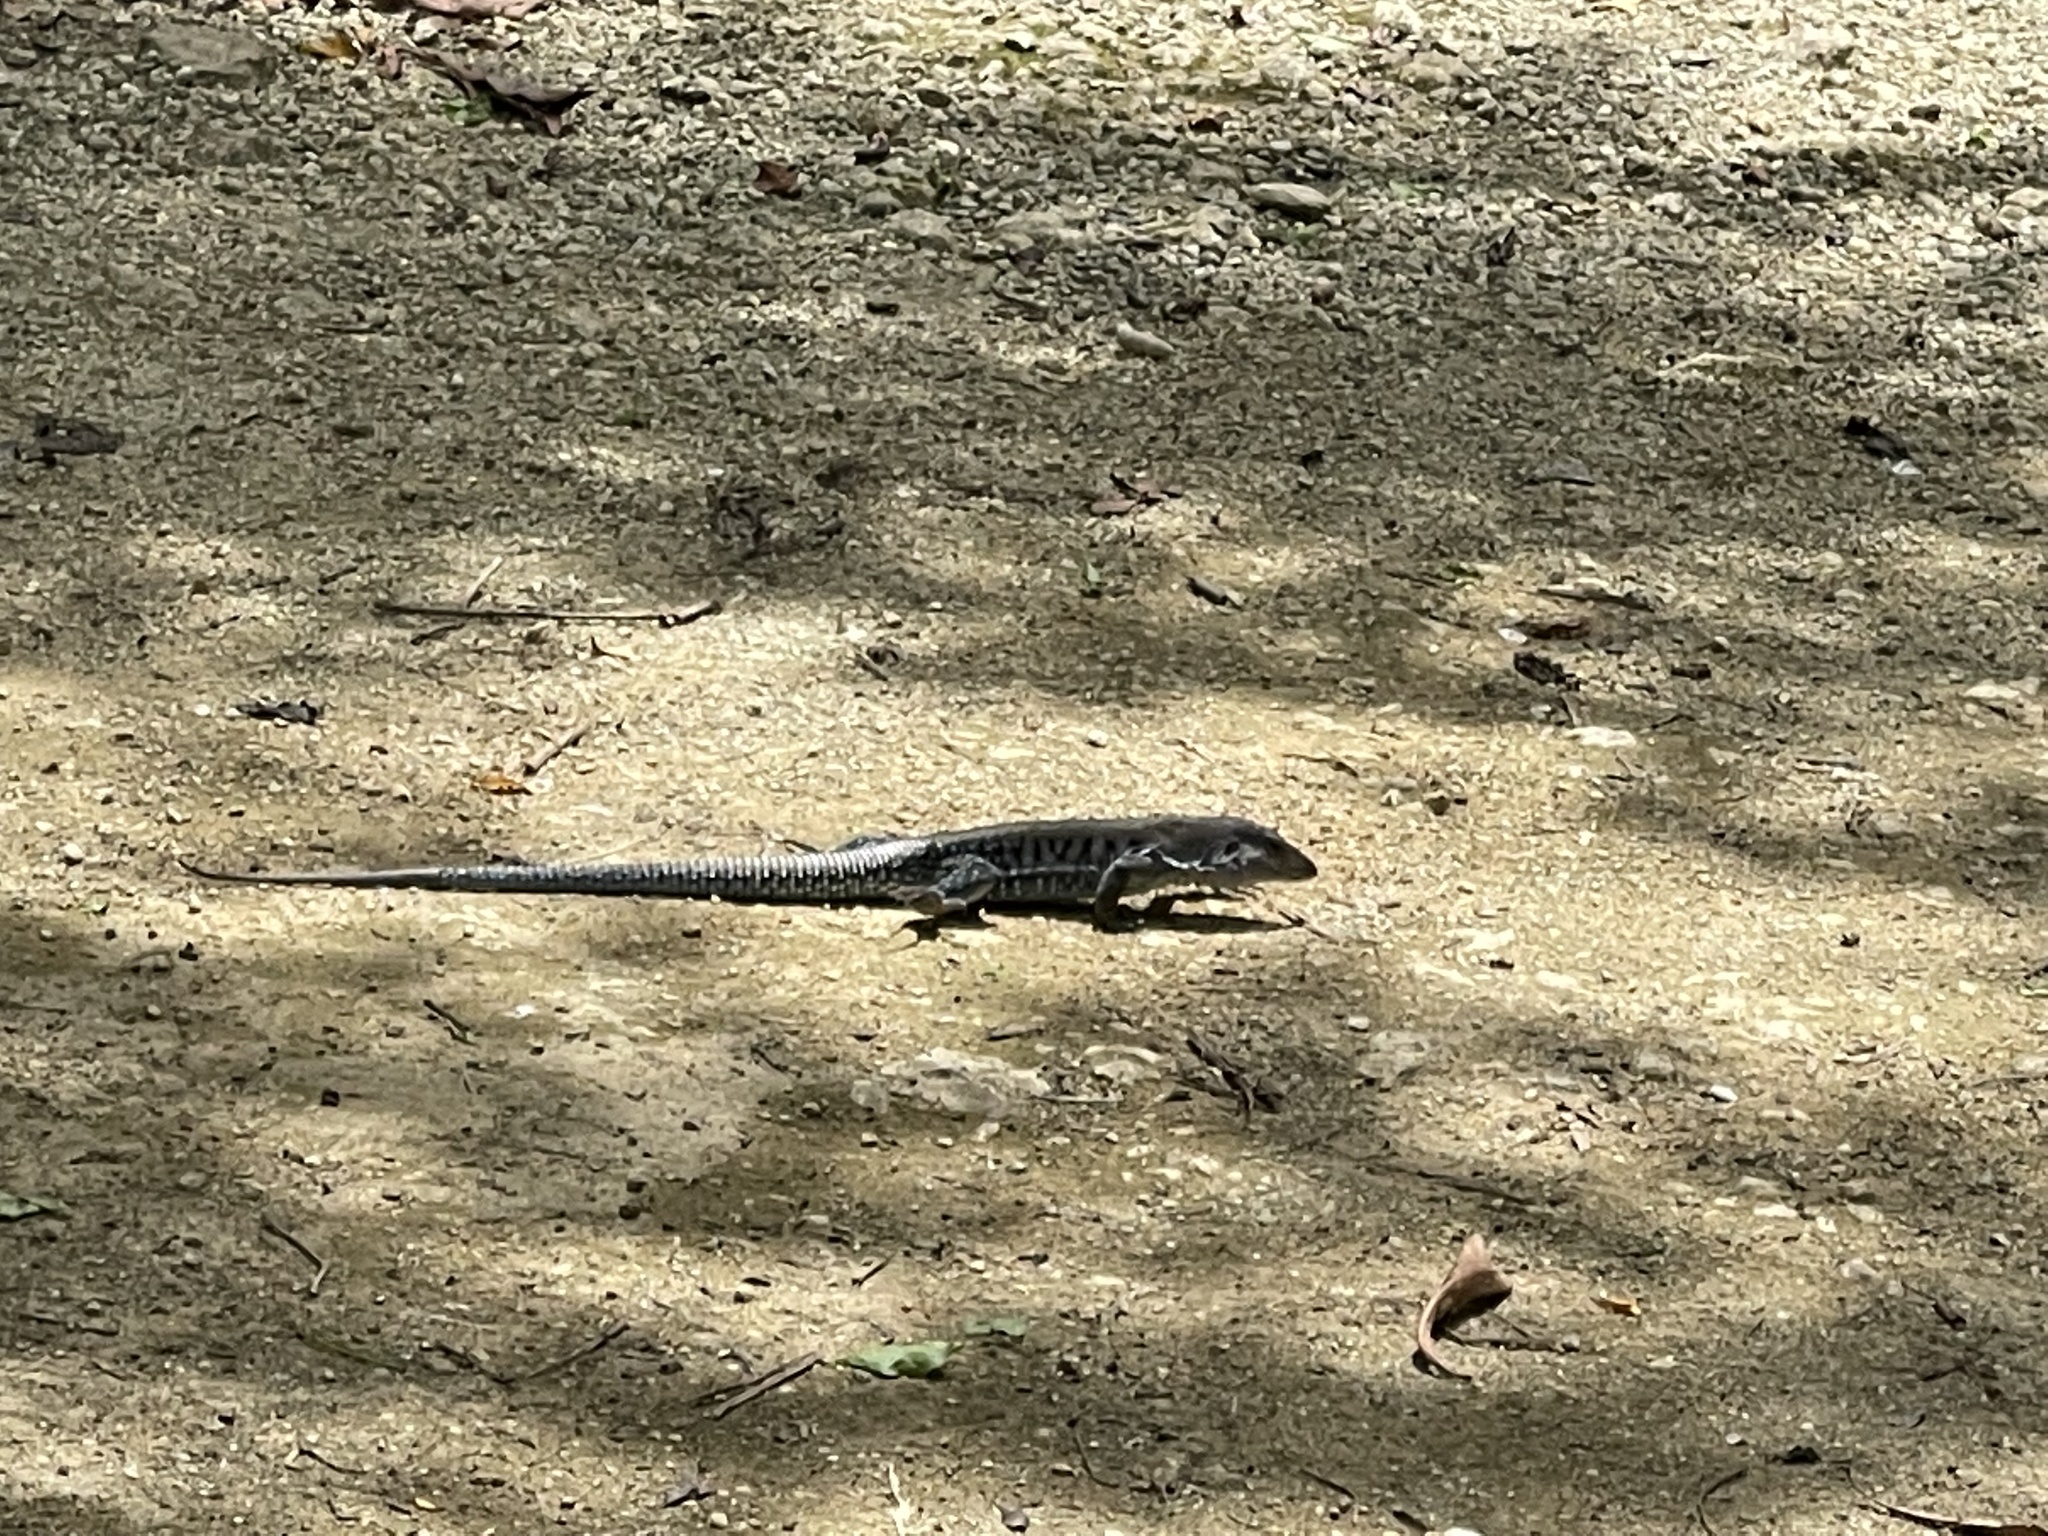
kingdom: Animalia
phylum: Chordata
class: Squamata
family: Teiidae
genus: Pholidoscelis
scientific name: Pholidoscelis exsul
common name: Common puerto rican ameiva
